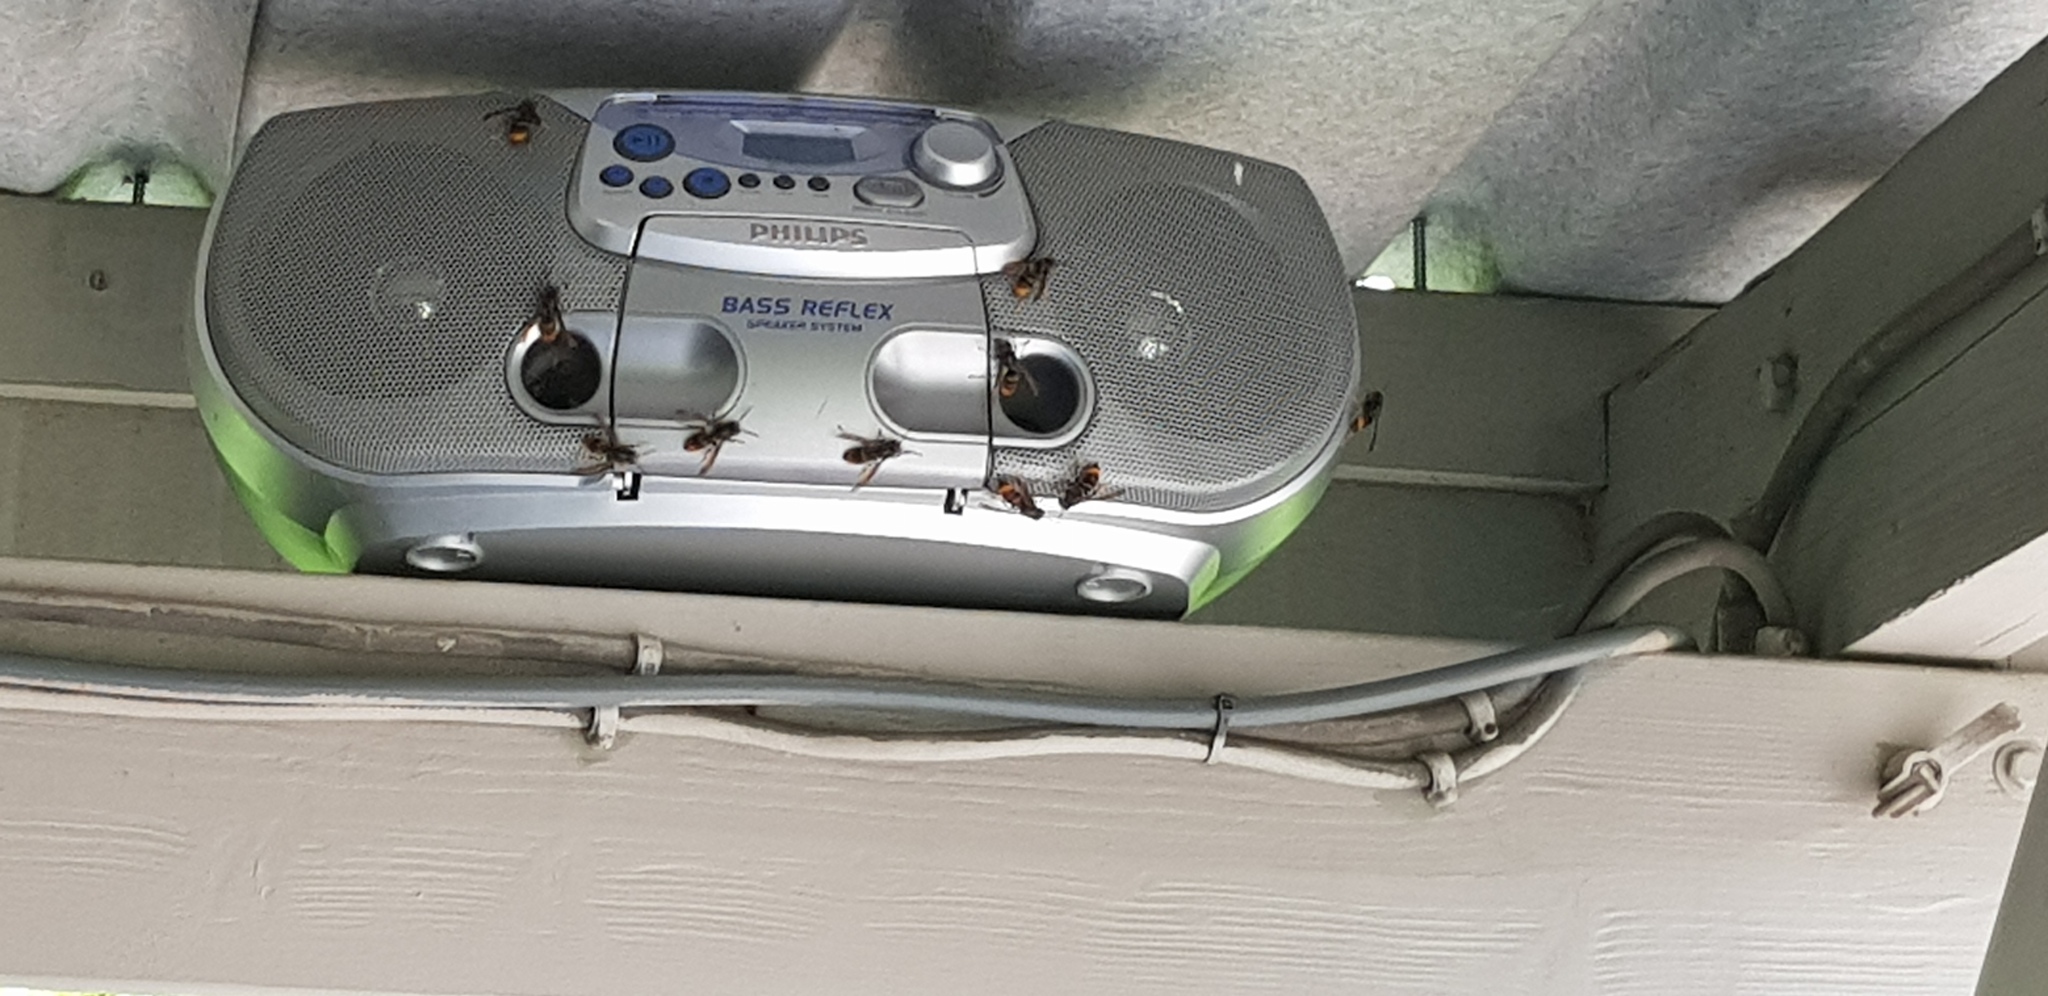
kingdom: Animalia
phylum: Arthropoda
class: Insecta
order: Hymenoptera
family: Vespidae
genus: Vespa
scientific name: Vespa velutina
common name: Asian hornet
